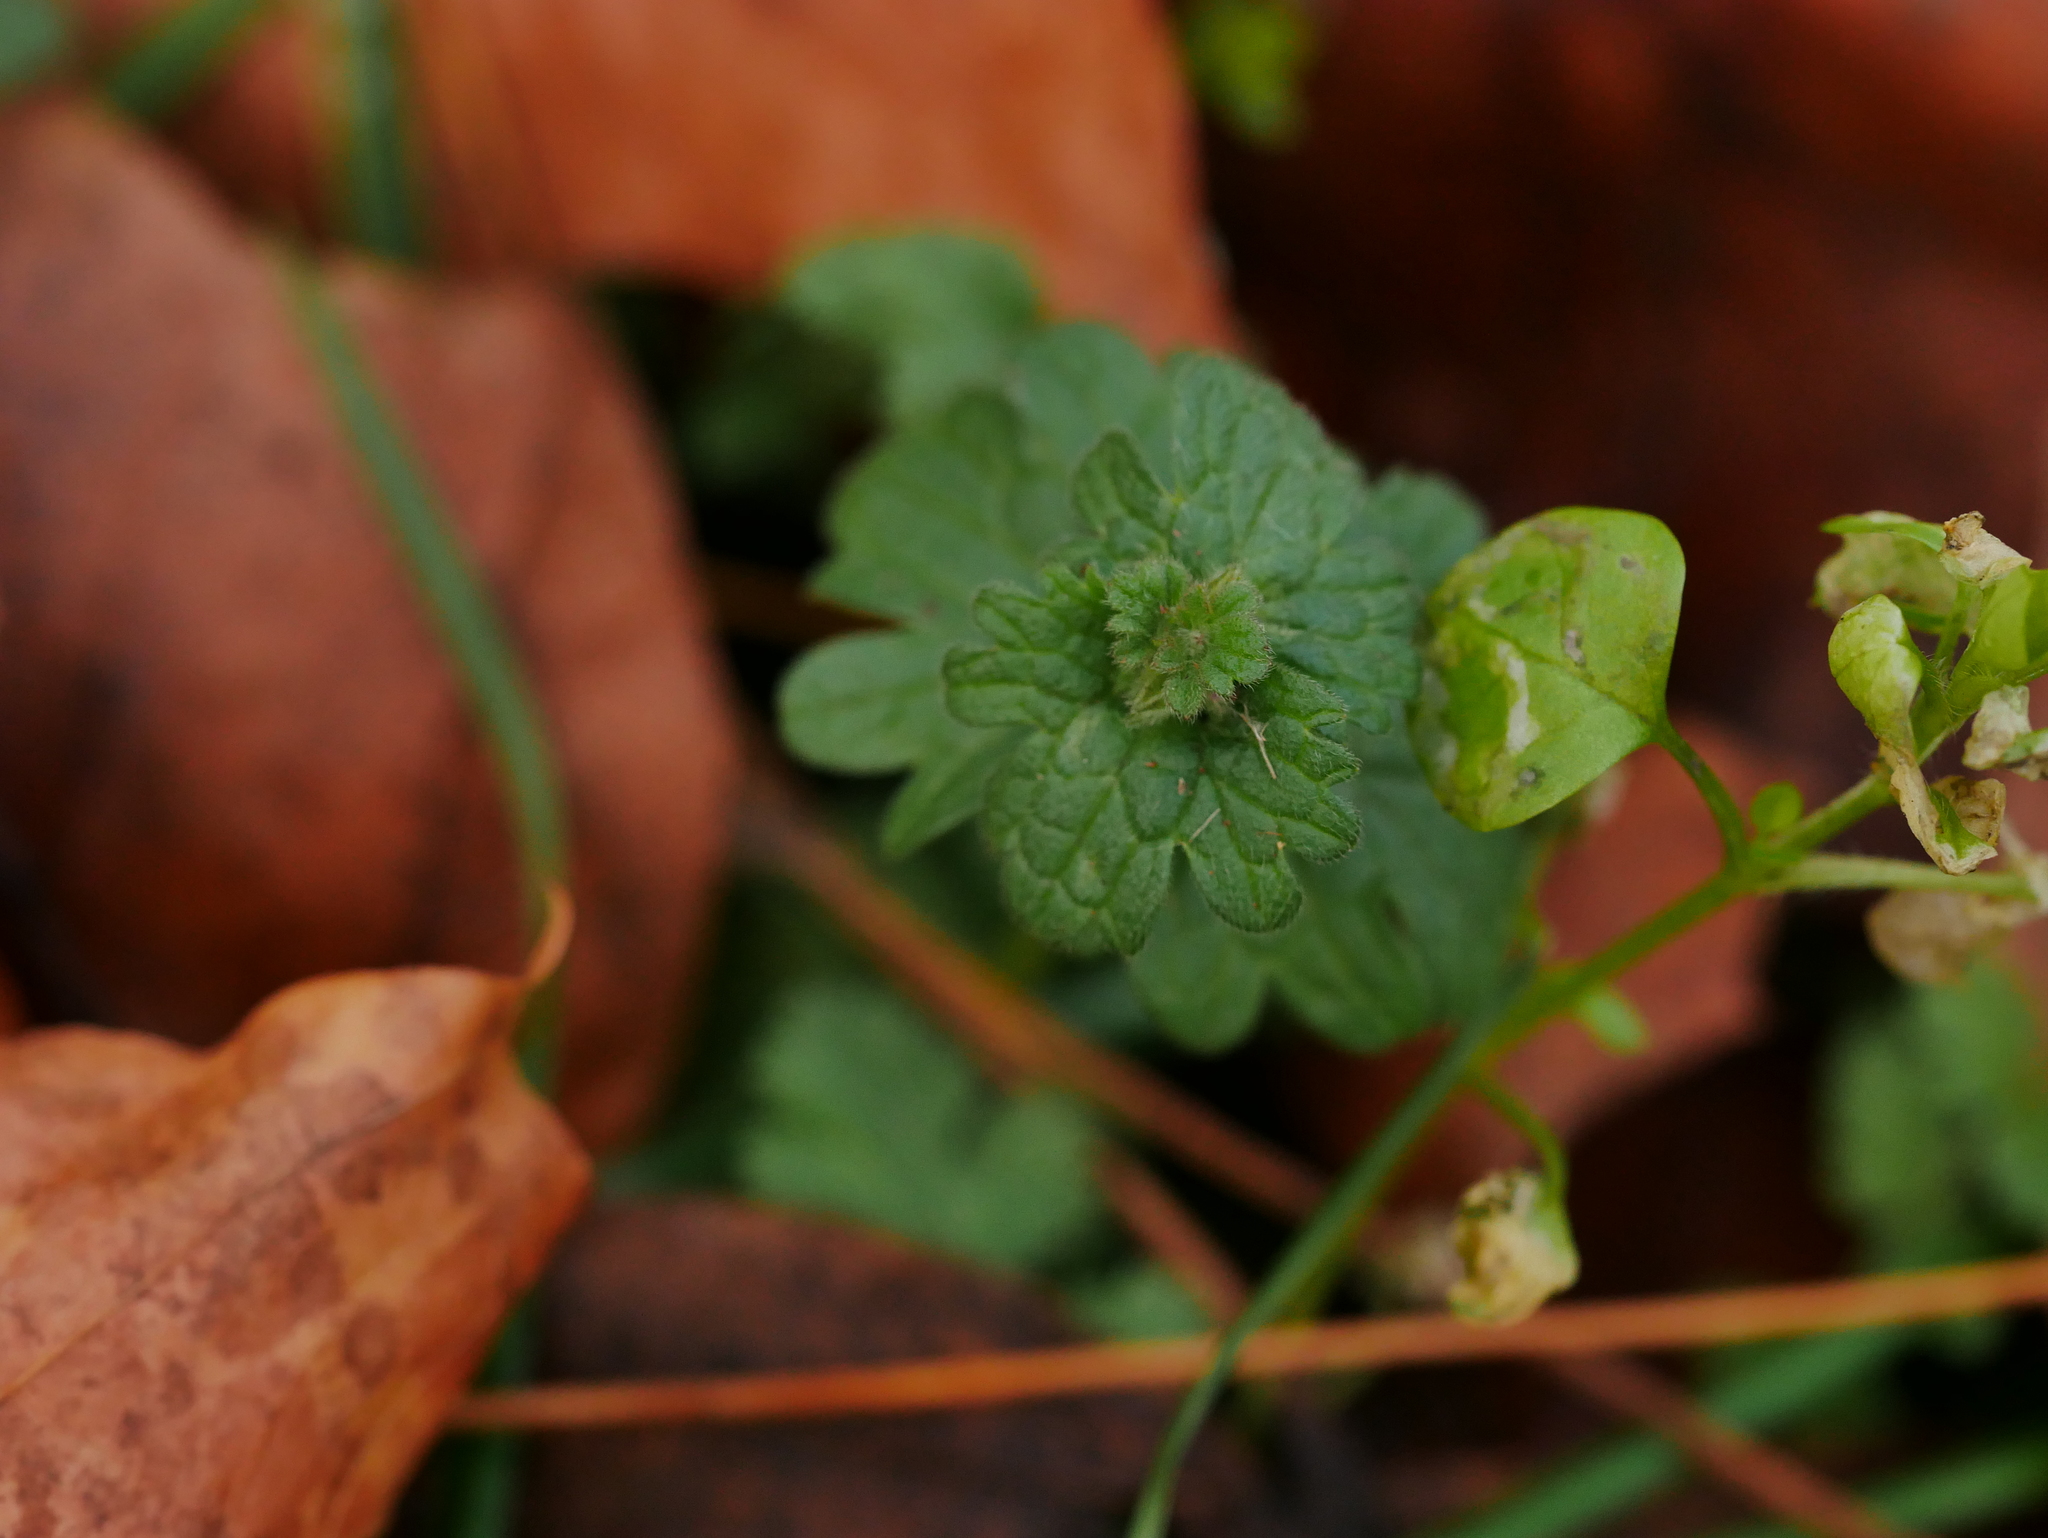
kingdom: Plantae
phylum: Tracheophyta
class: Magnoliopsida
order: Lamiales
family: Lamiaceae
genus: Lamium
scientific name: Lamium amplexicaule
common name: Henbit dead-nettle
